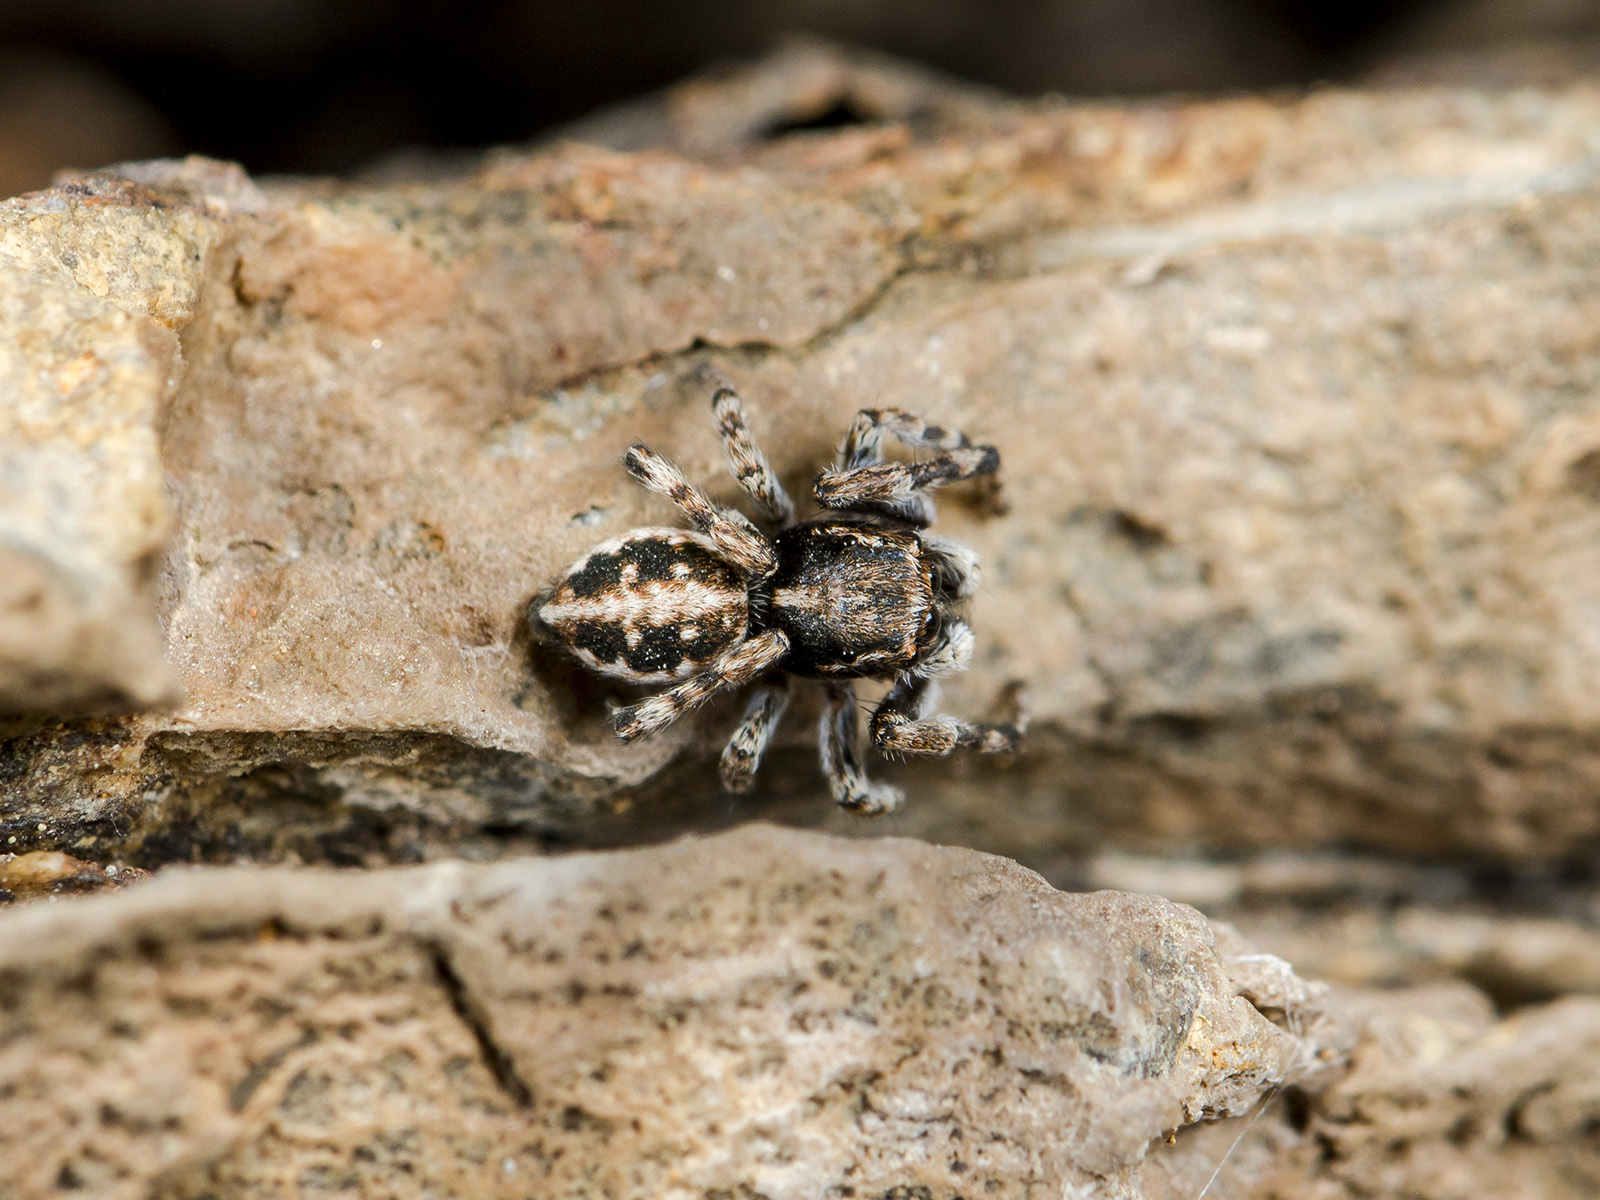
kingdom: Animalia
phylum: Arthropoda
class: Arachnida
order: Araneae
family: Salticidae
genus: Attulus
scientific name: Attulus distinguendus
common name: Distinguished jumper
